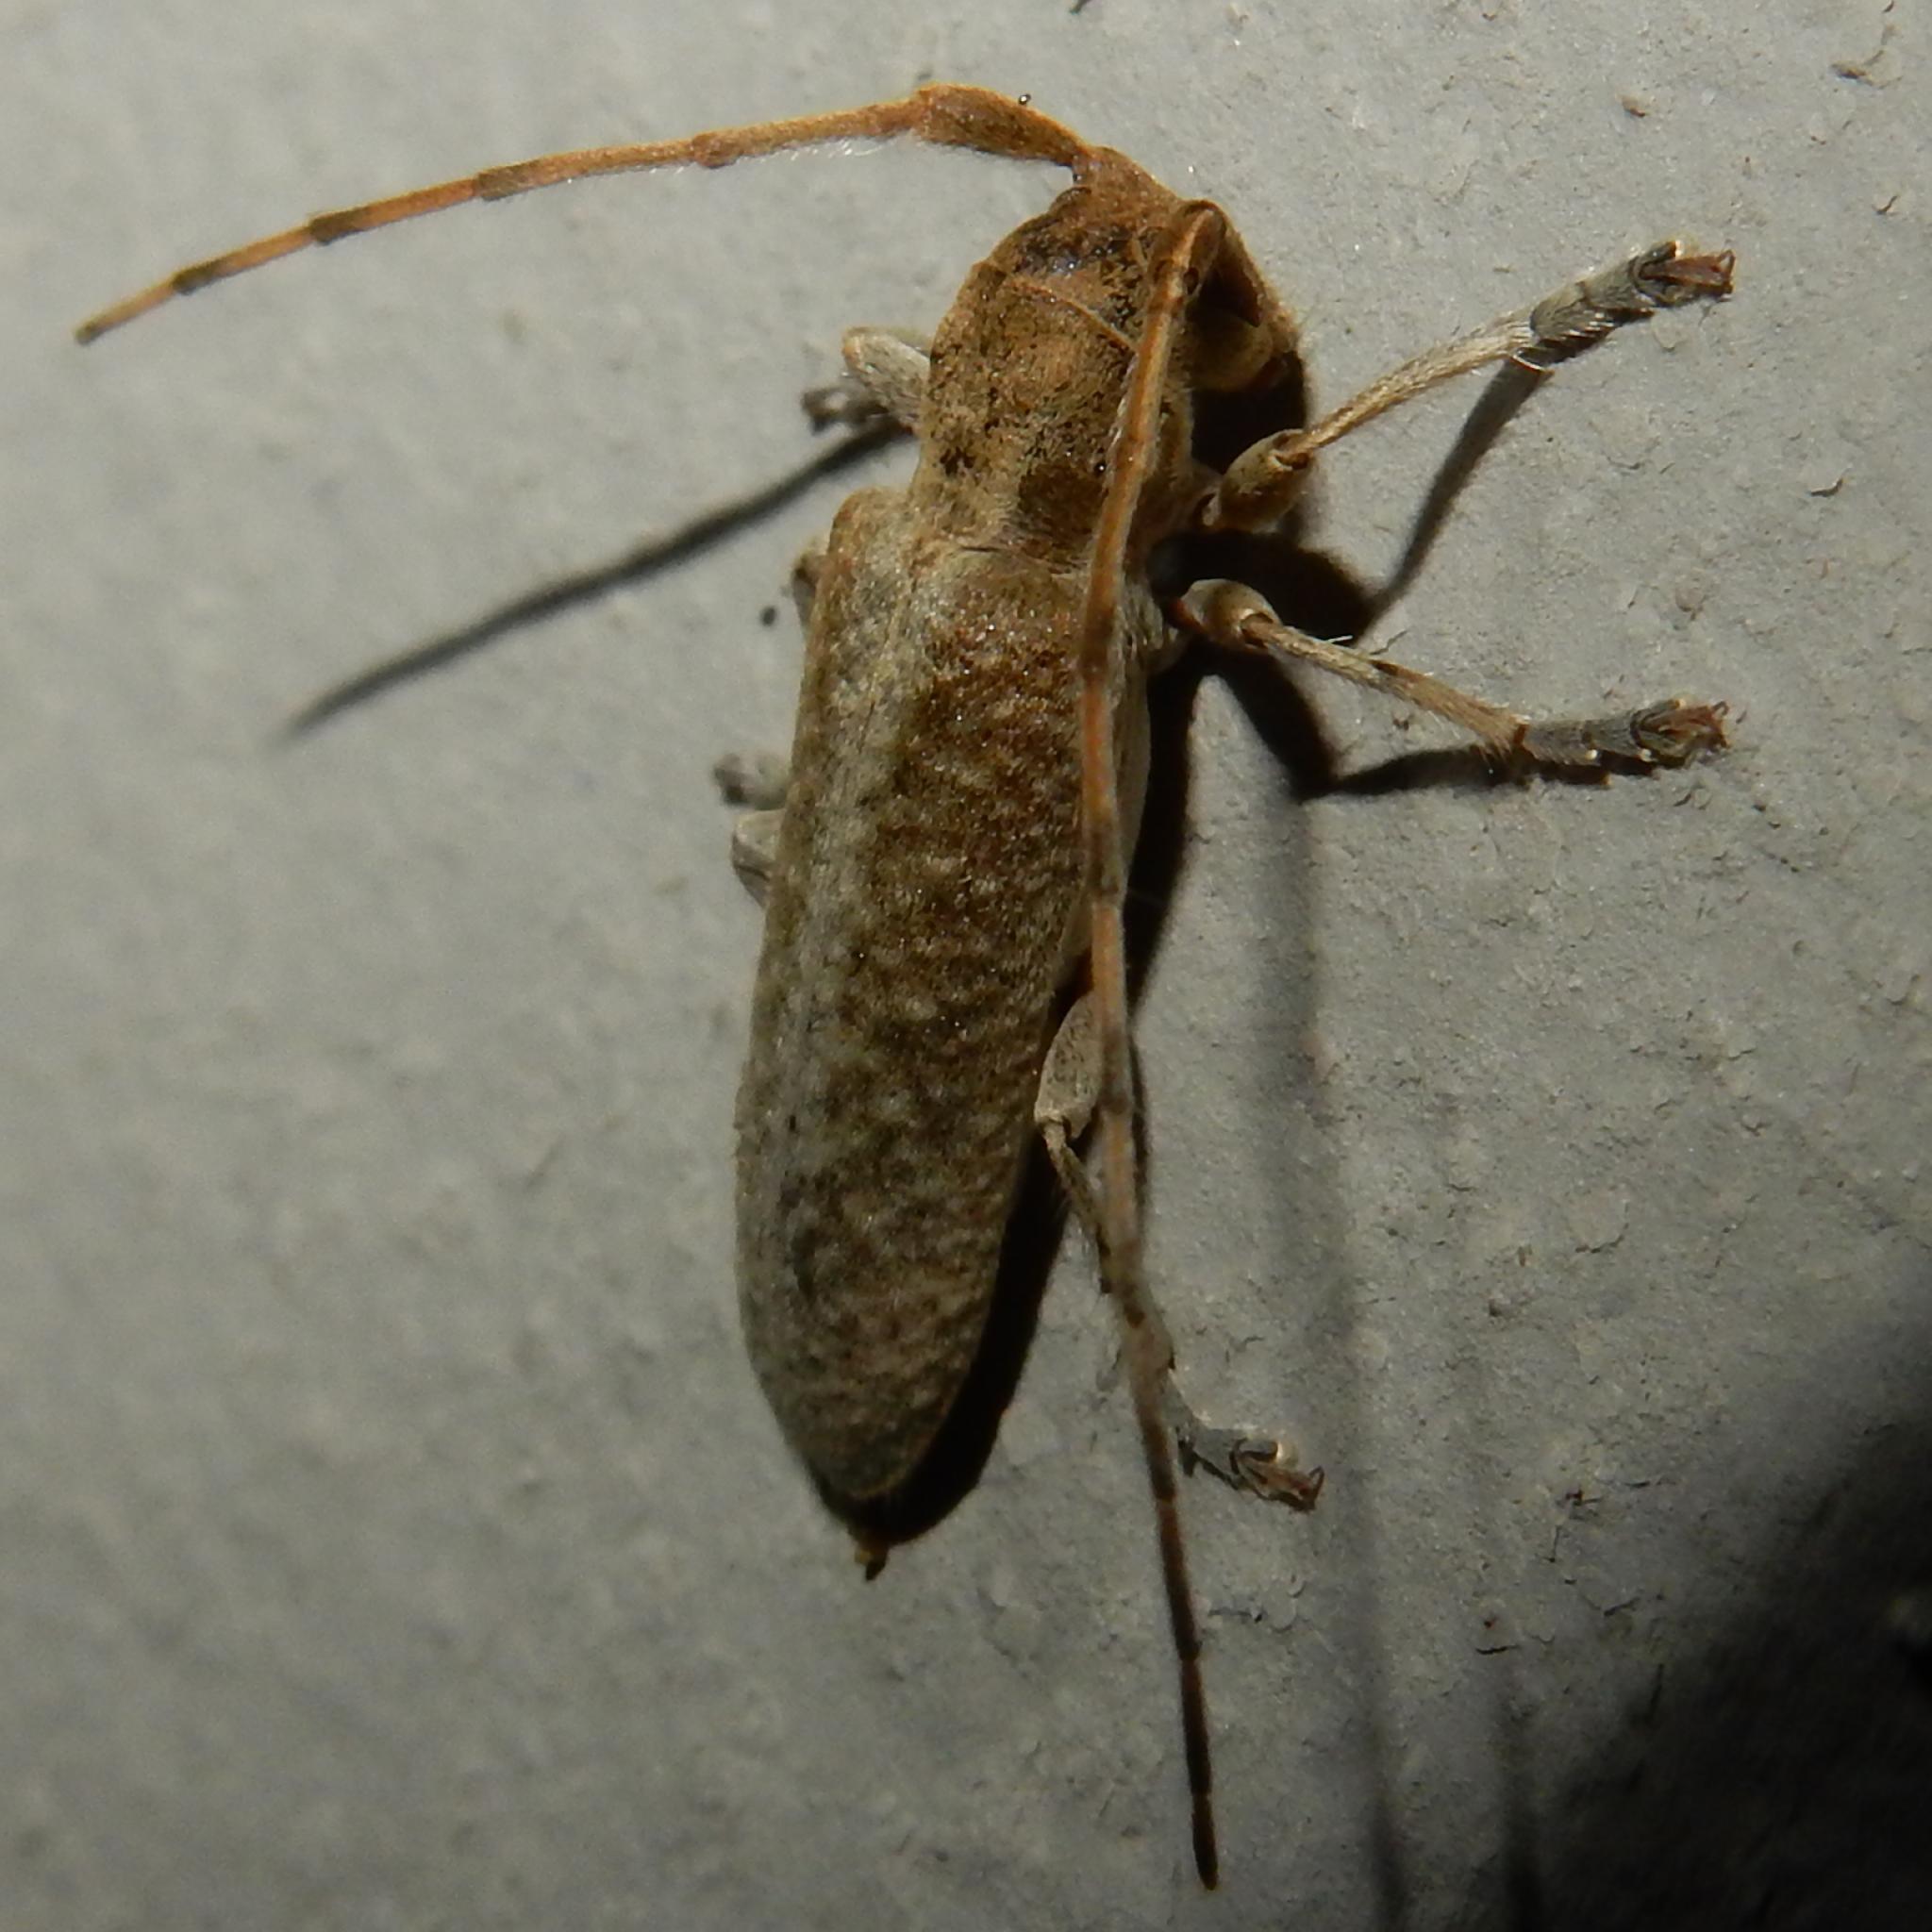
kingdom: Animalia
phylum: Arthropoda
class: Insecta
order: Coleoptera
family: Cerambycidae
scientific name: Cerambycidae
